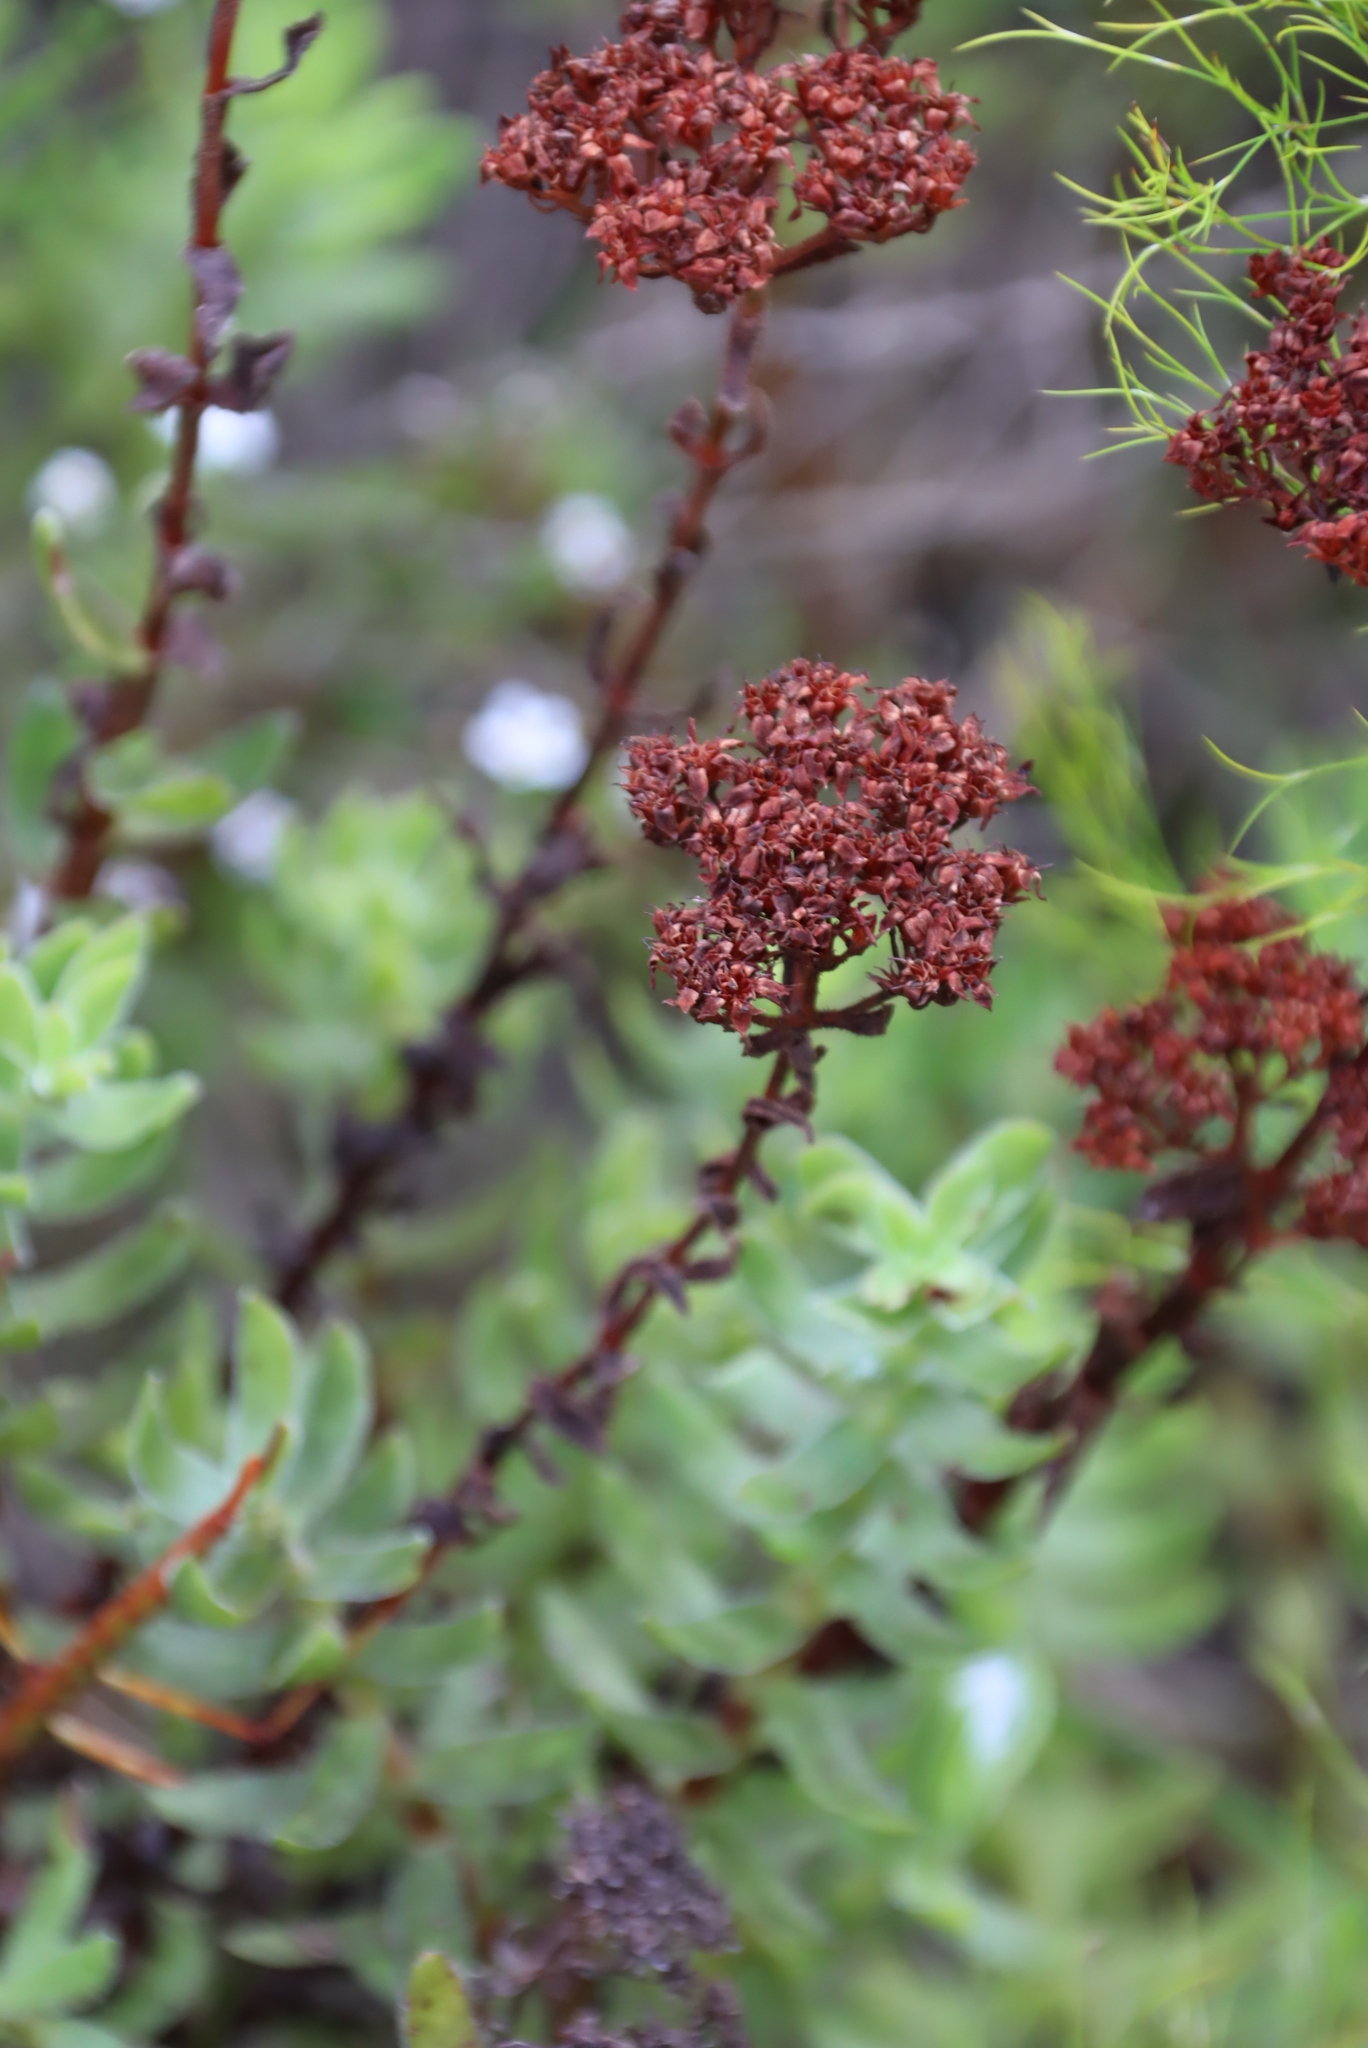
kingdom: Plantae
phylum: Tracheophyta
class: Magnoliopsida
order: Saxifragales
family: Crassulaceae
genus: Crassula
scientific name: Crassula undulata
